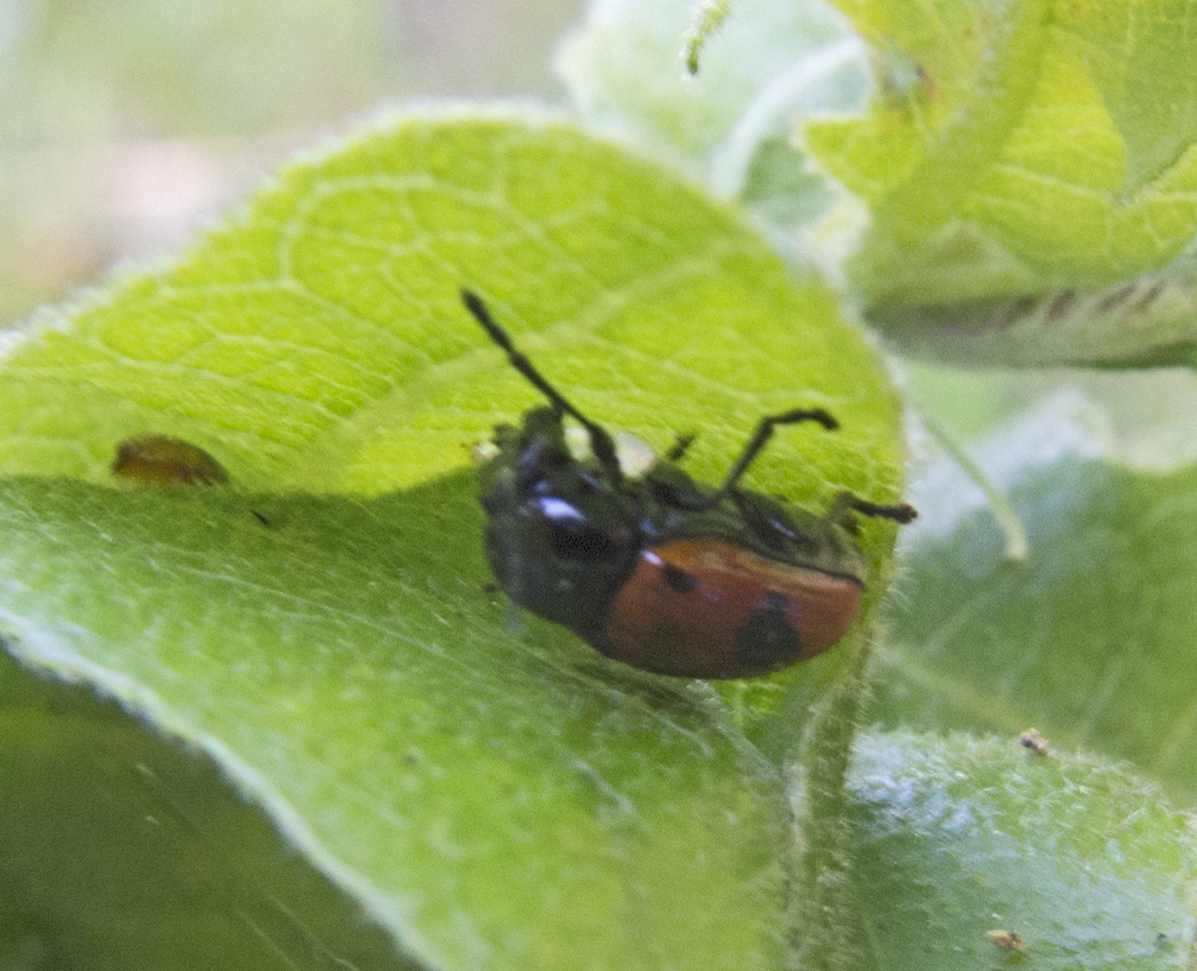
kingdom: Animalia
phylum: Arthropoda
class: Insecta
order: Coleoptera
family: Chrysomelidae
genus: Chiridopsis
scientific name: Chiridopsis bipunctata
